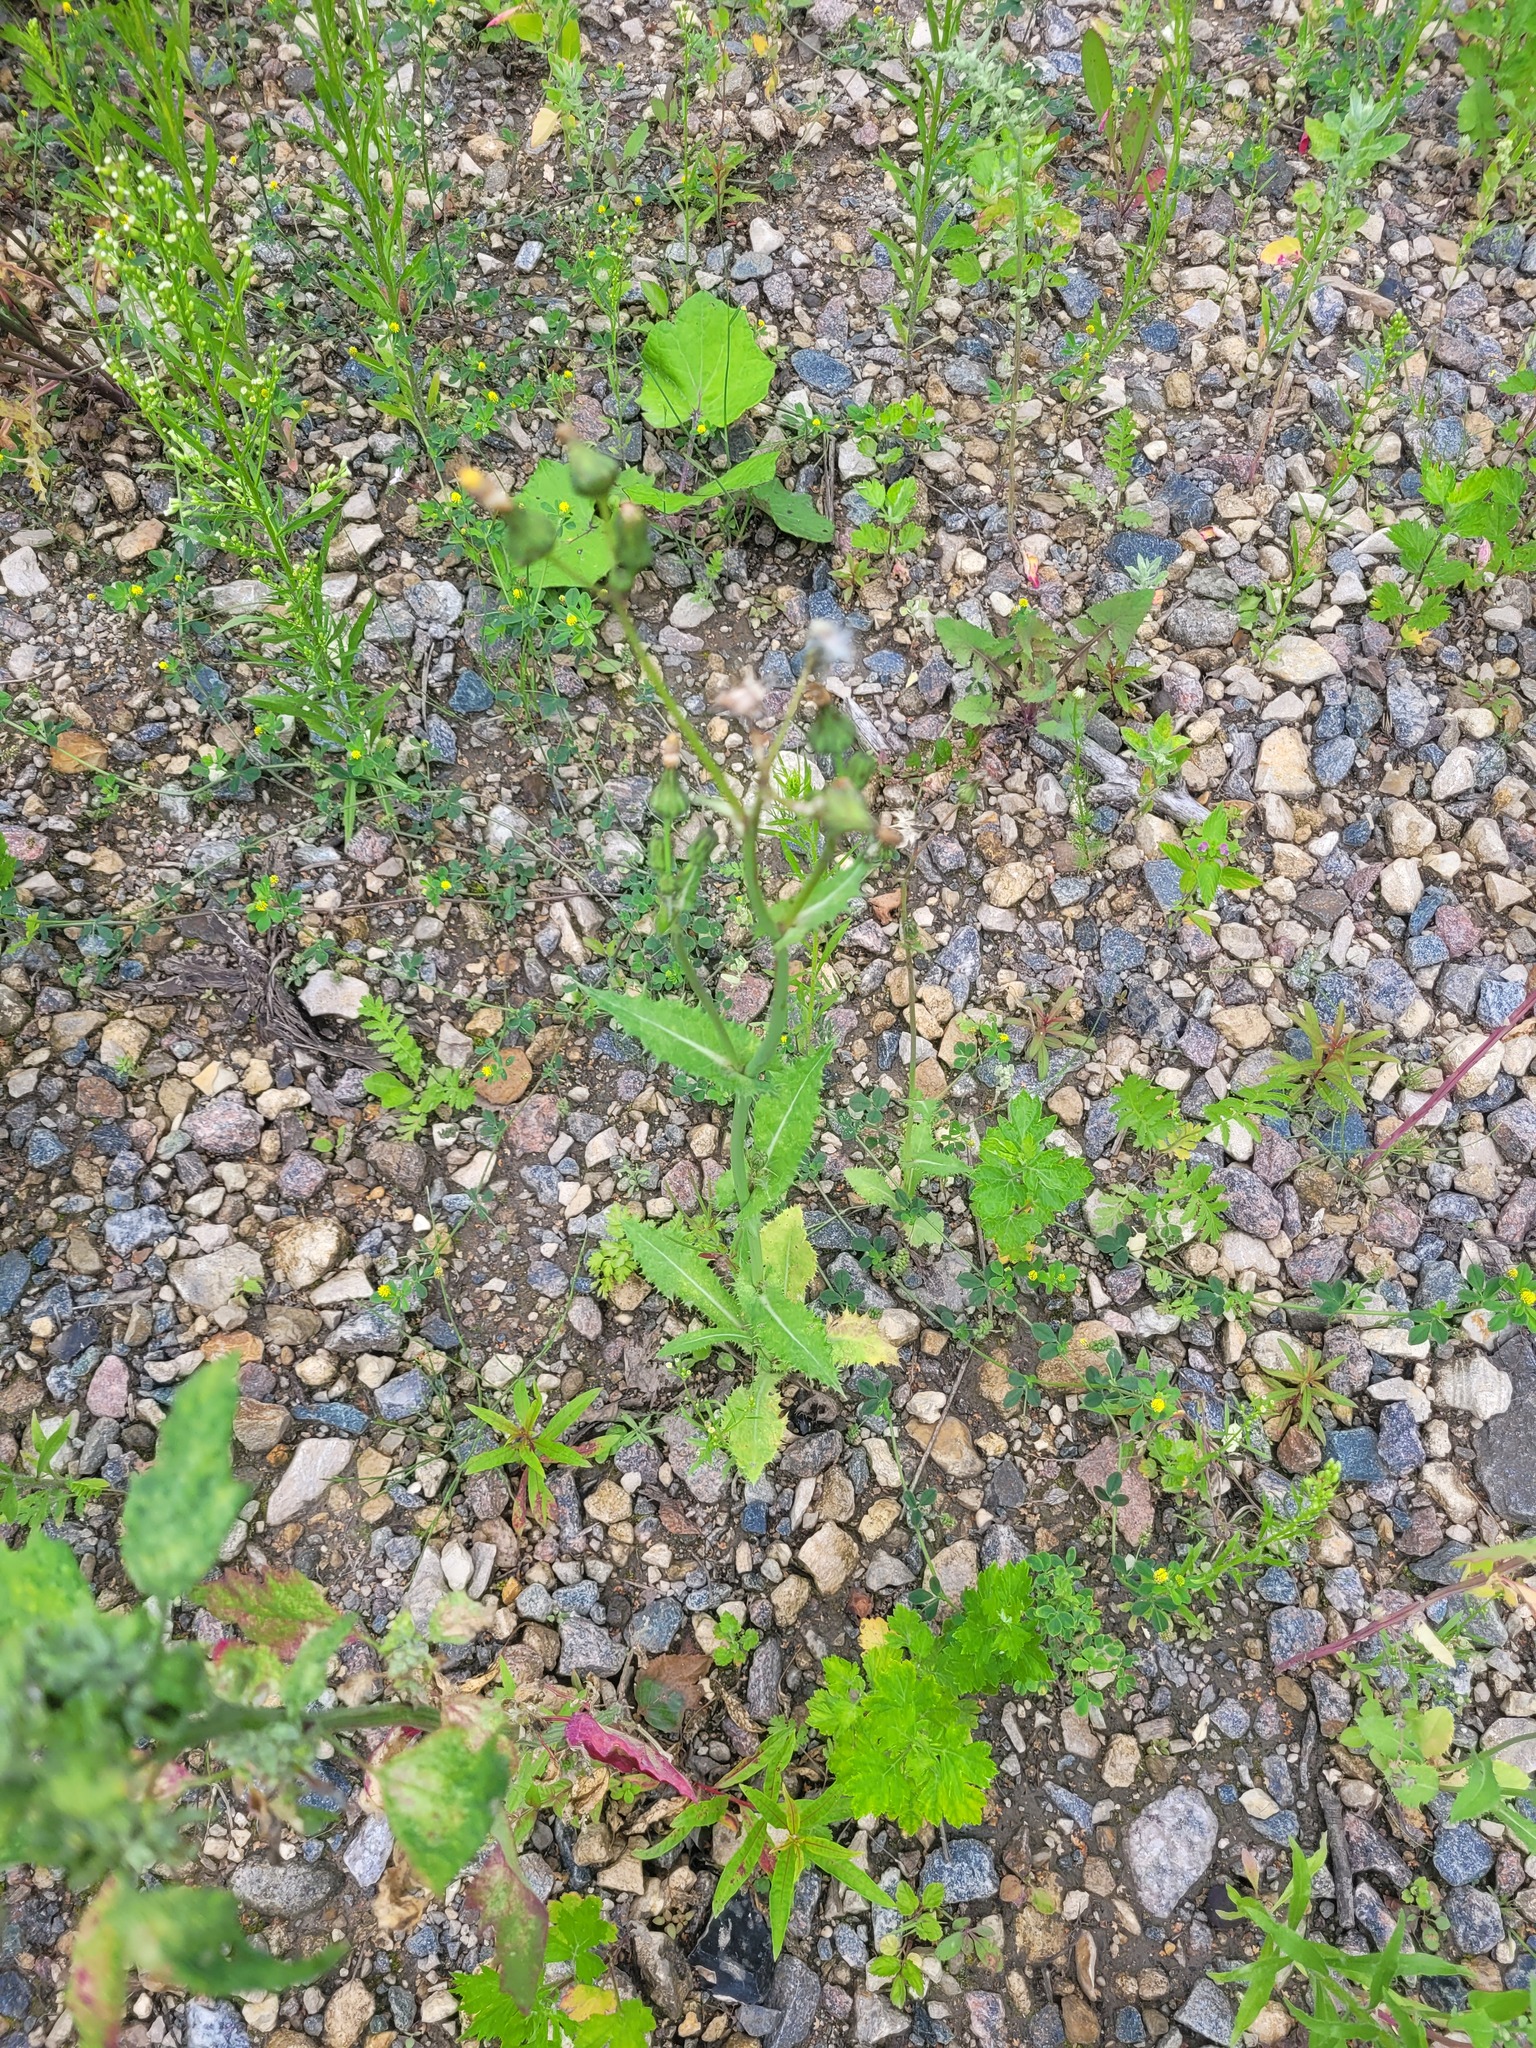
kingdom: Plantae
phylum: Tracheophyta
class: Magnoliopsida
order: Asterales
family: Asteraceae
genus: Sonchus
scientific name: Sonchus asper
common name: Prickly sow-thistle
